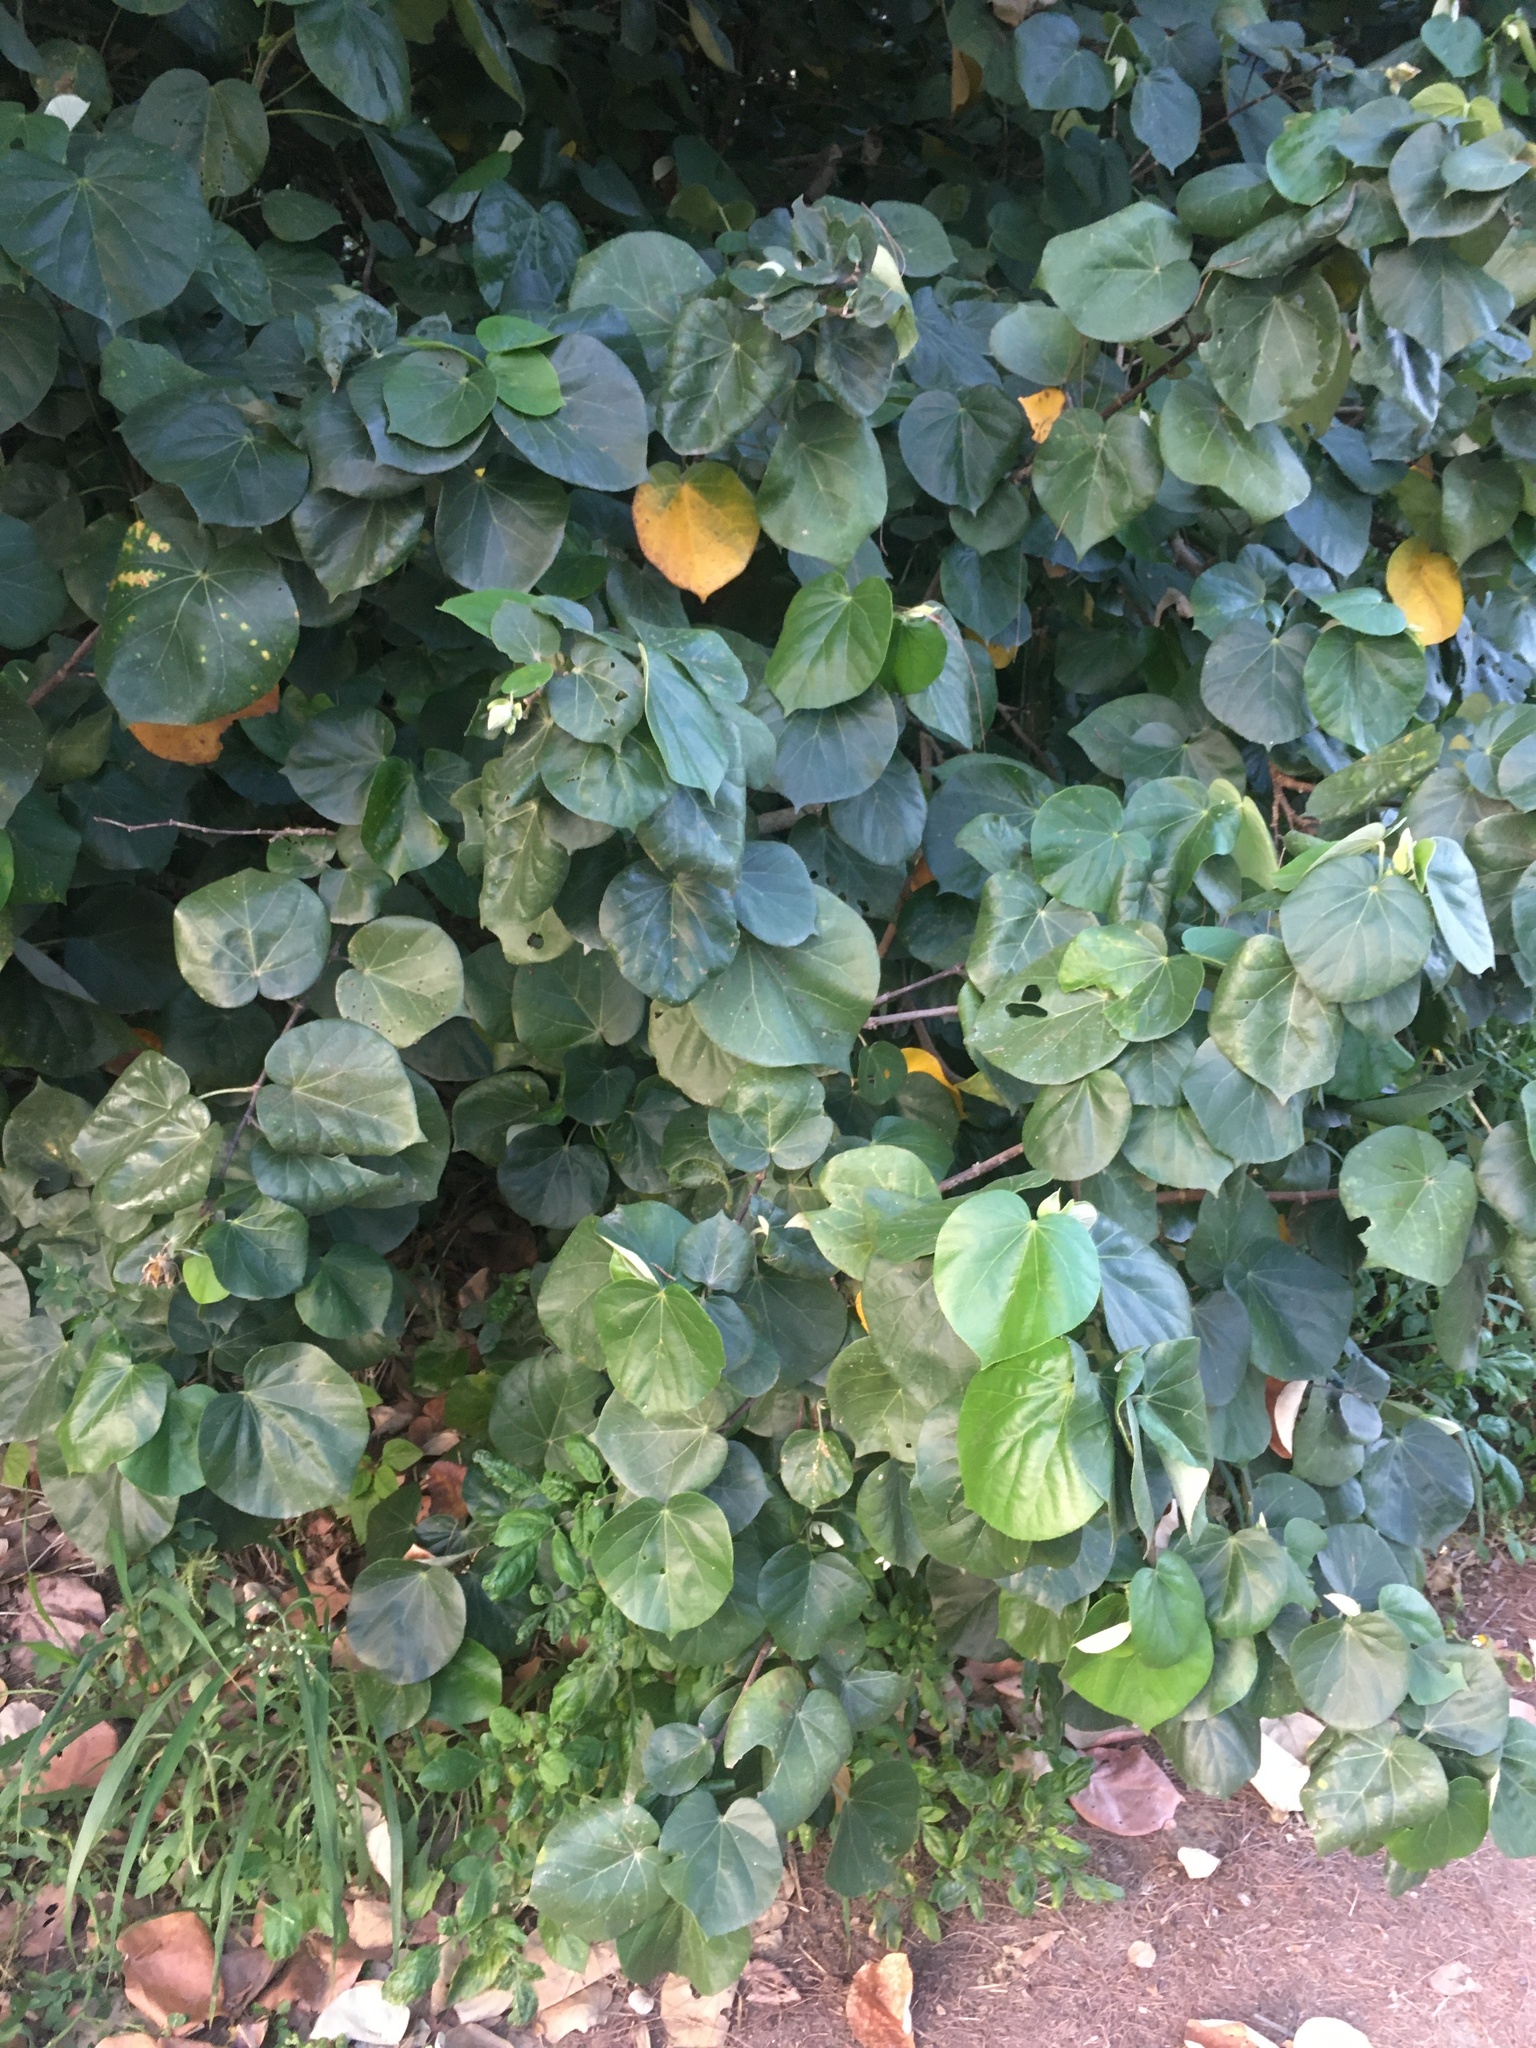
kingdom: Plantae
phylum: Tracheophyta
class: Magnoliopsida
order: Malvales
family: Malvaceae
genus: Talipariti
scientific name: Talipariti tiliaceum
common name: Sea hibiscus
